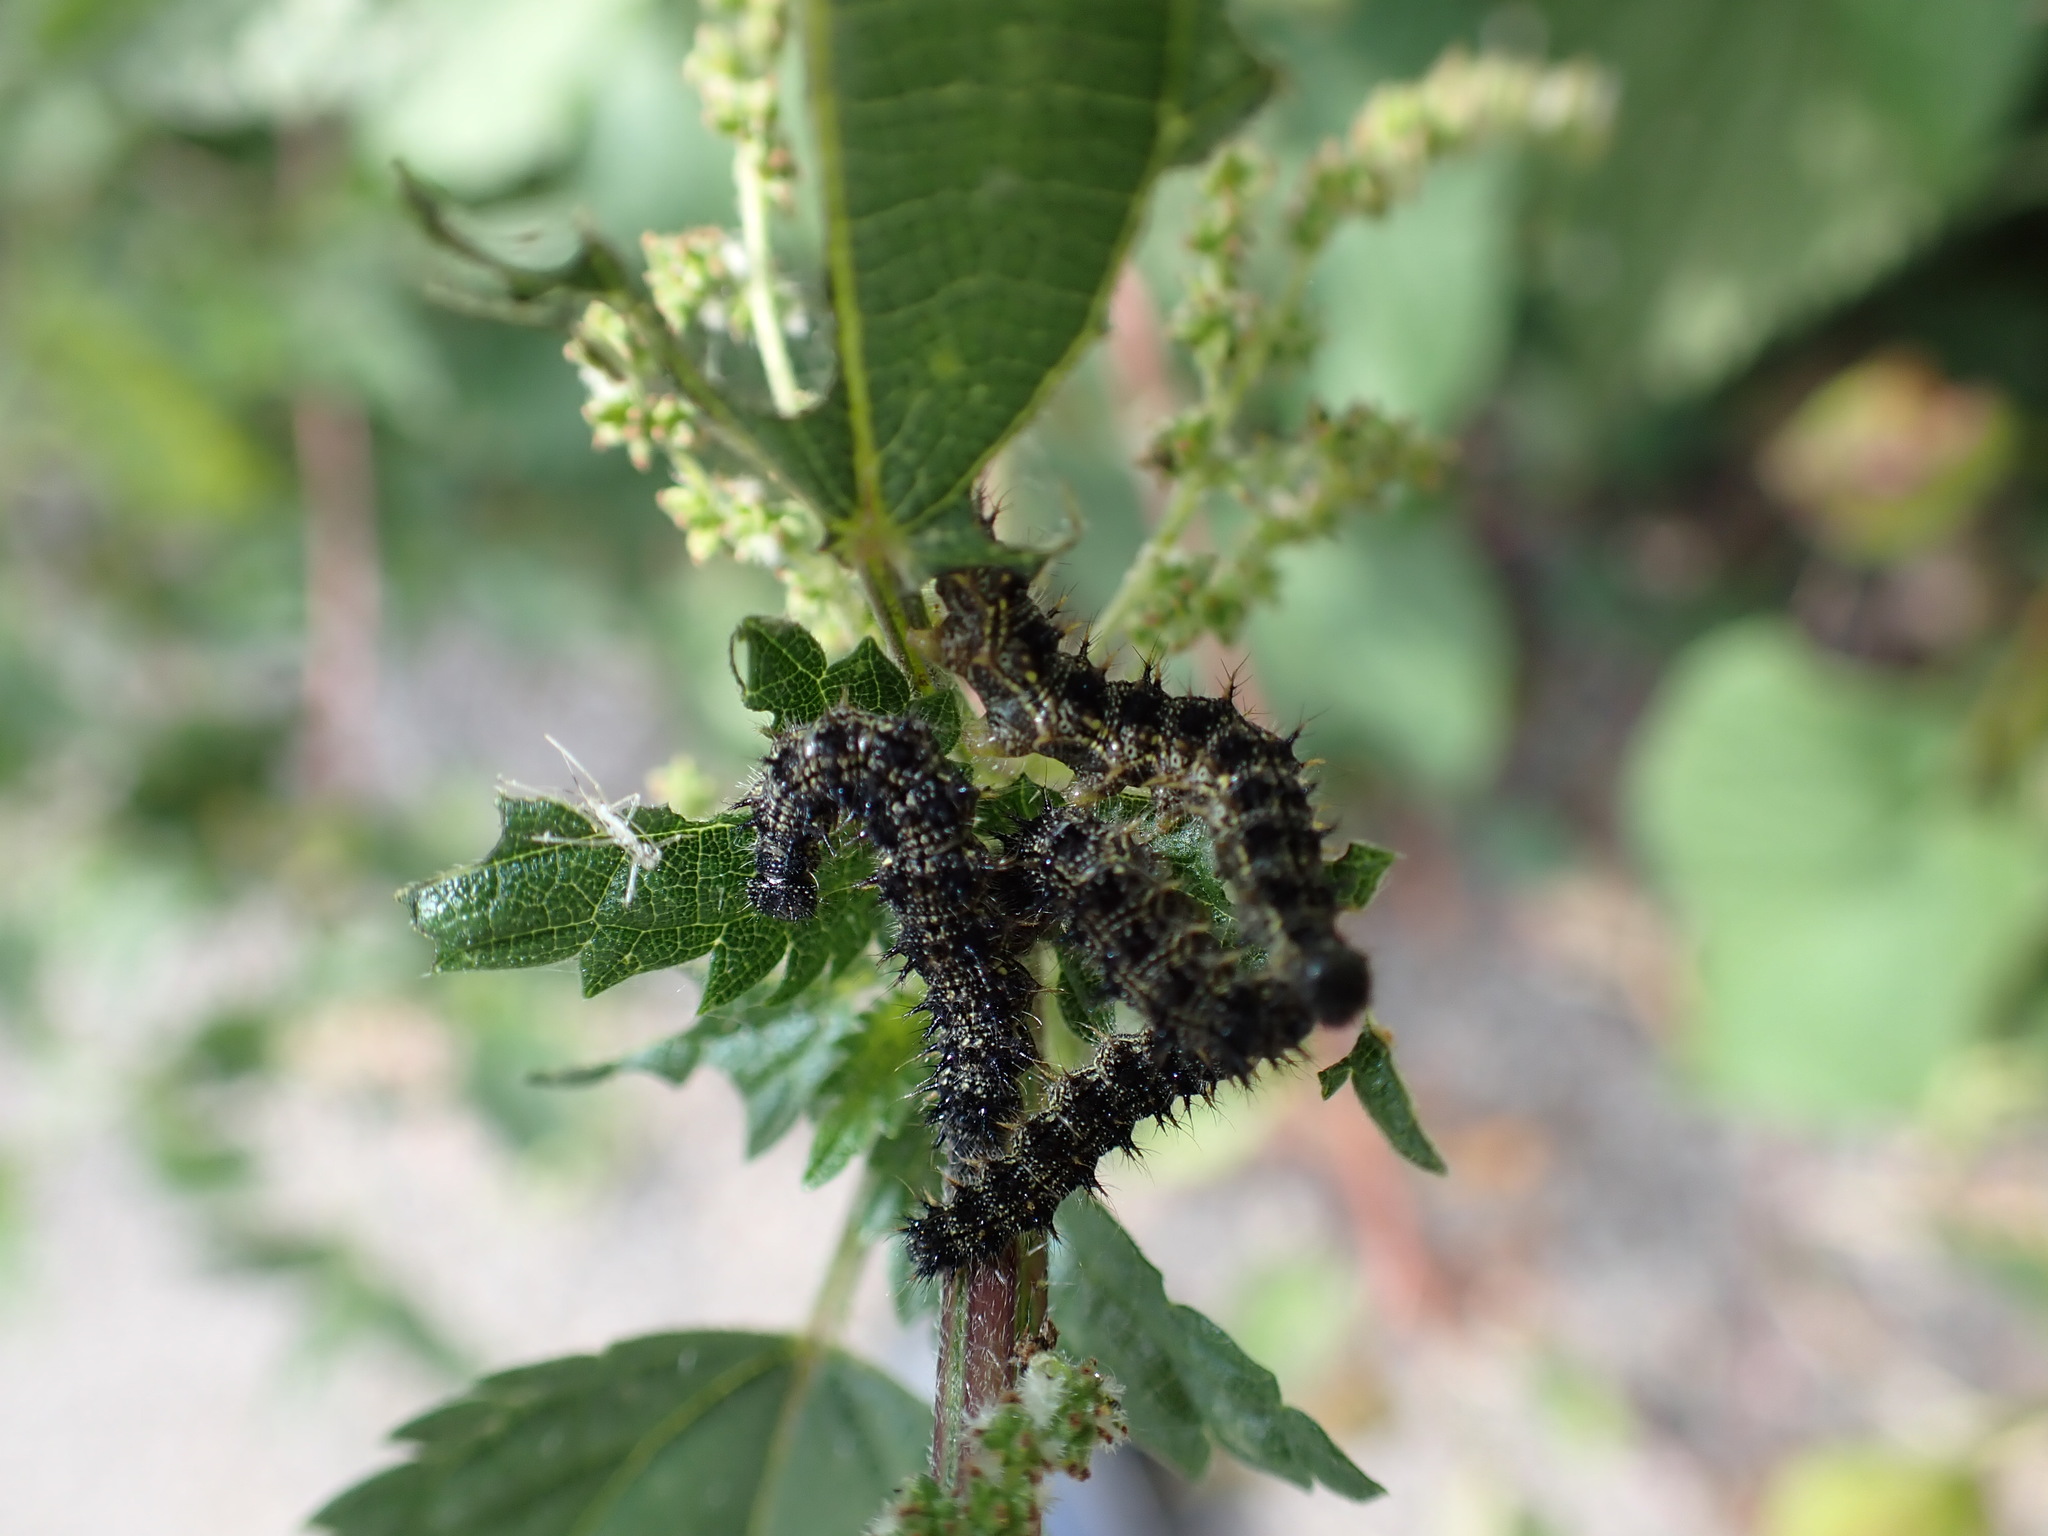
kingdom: Animalia
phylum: Arthropoda
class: Insecta
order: Lepidoptera
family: Nymphalidae
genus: Aglais
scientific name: Aglais urticae
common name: Small tortoiseshell
